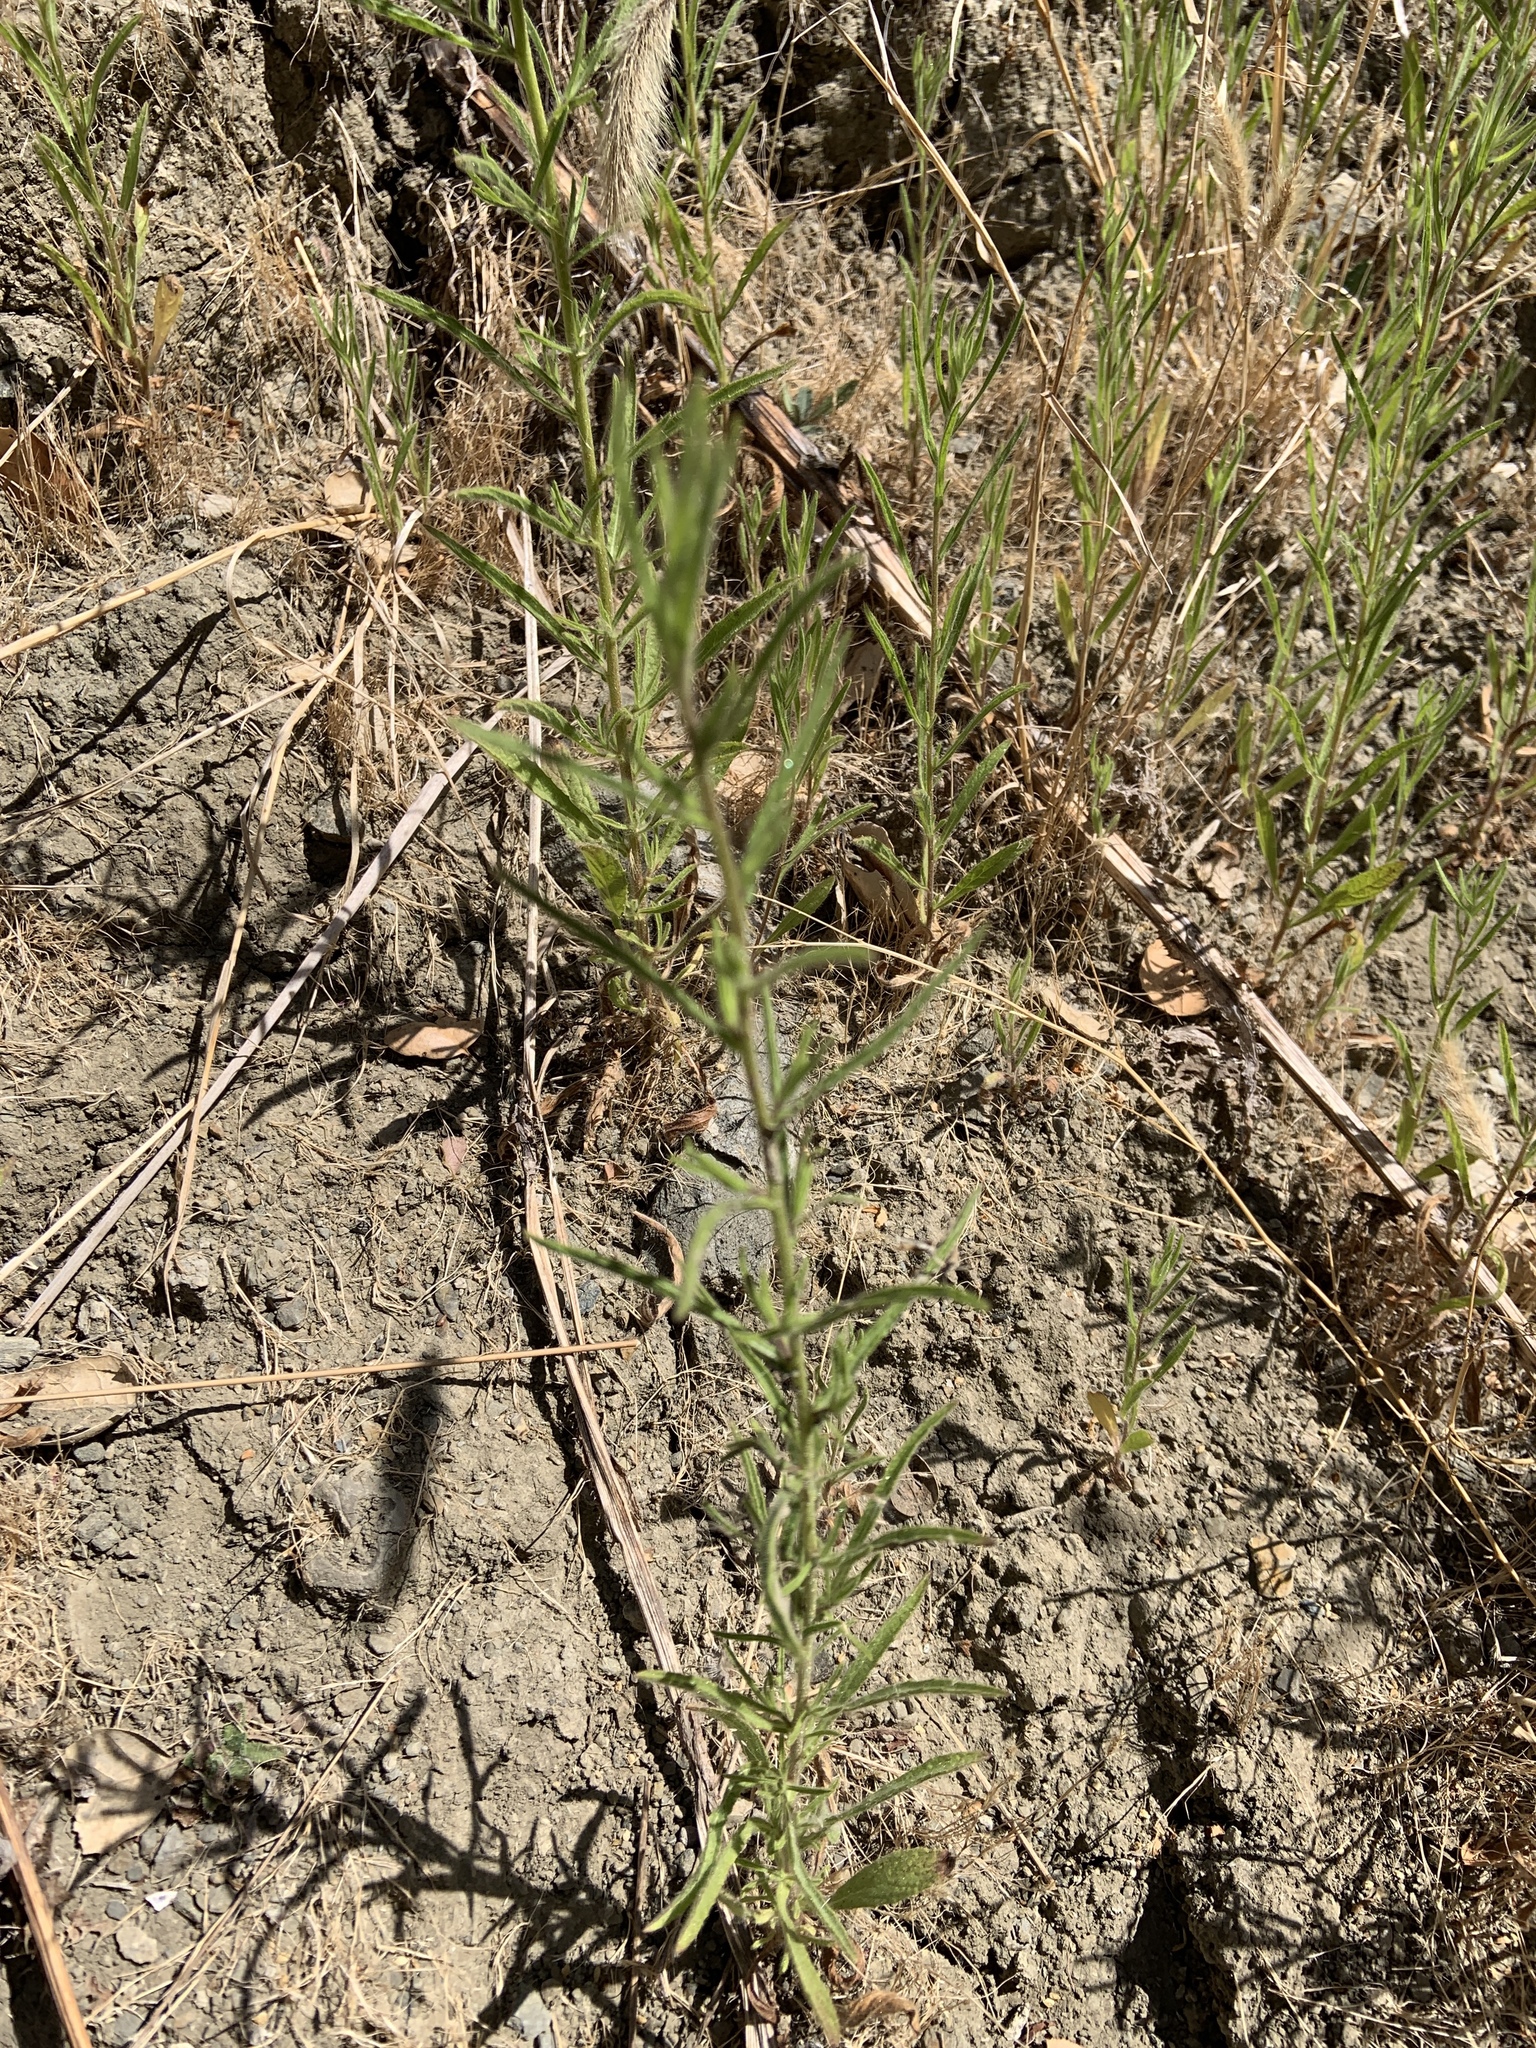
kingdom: Plantae
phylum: Tracheophyta
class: Magnoliopsida
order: Asterales
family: Asteraceae
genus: Dittrichia
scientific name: Dittrichia graveolens
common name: Stinking fleabane
